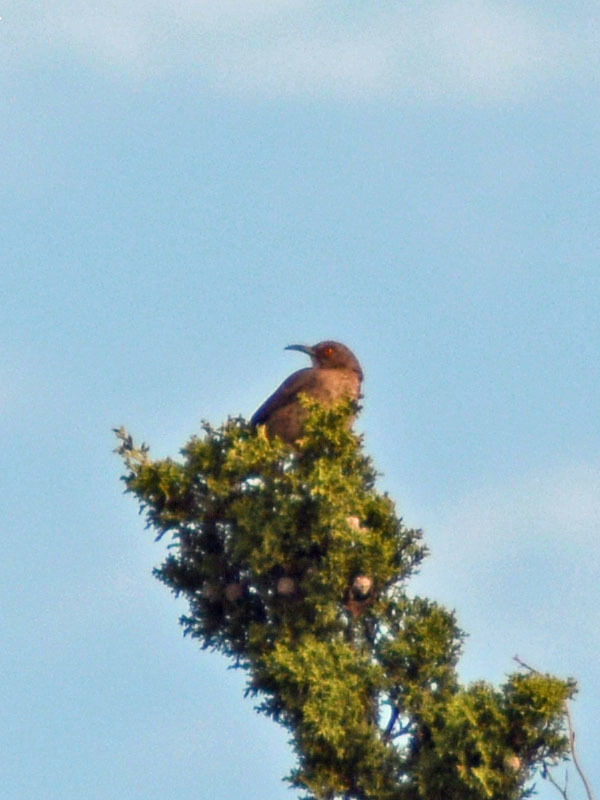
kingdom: Animalia
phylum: Chordata
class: Aves
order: Passeriformes
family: Mimidae
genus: Toxostoma
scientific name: Toxostoma curvirostre
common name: Curve-billed thrasher
